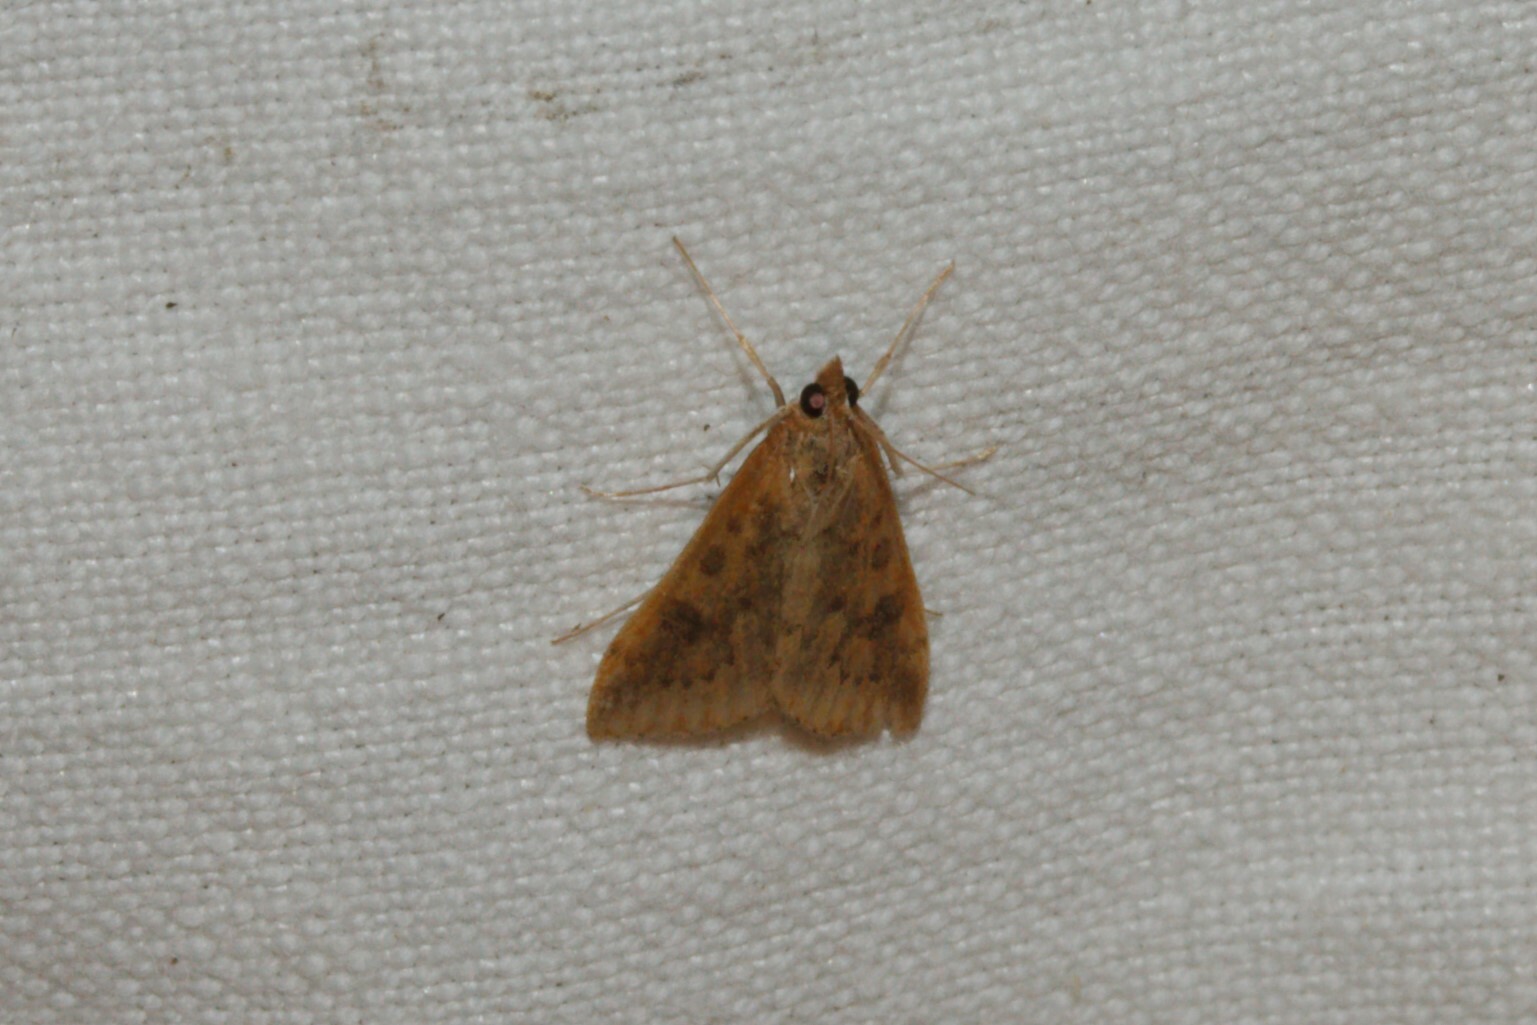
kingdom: Animalia
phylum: Arthropoda
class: Insecta
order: Lepidoptera
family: Crambidae
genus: Udea
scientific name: Udea ferrugalis
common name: Rusty dot
